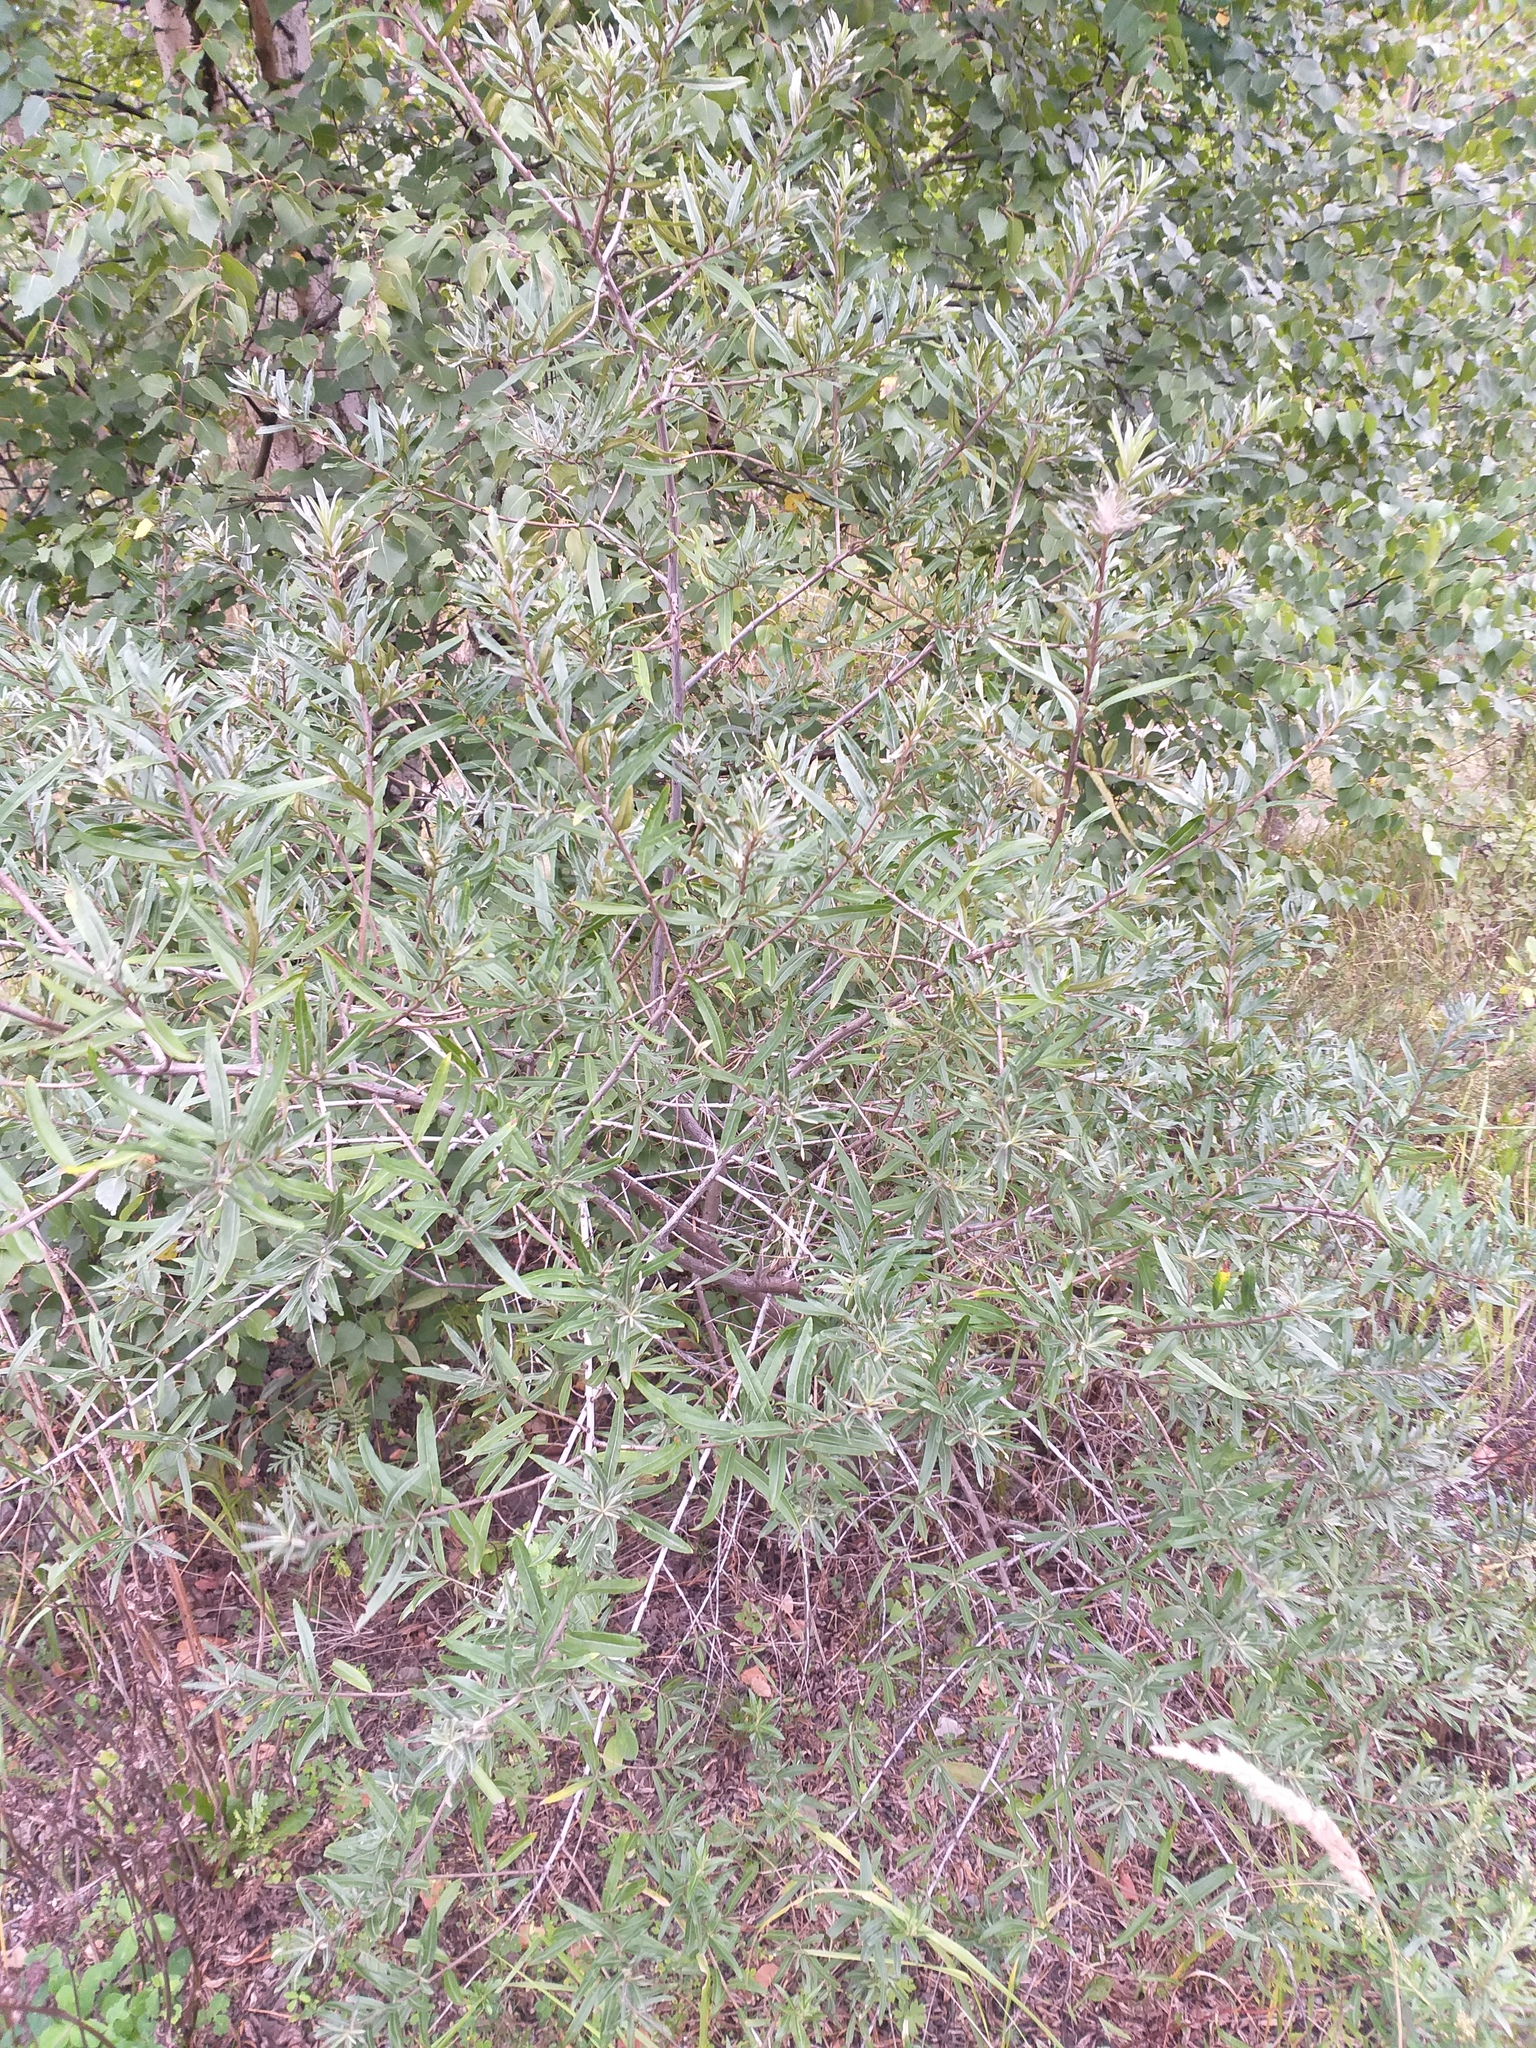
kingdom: Plantae
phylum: Tracheophyta
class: Magnoliopsida
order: Rosales
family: Elaeagnaceae
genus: Hippophae
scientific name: Hippophae rhamnoides
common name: Sea-buckthorn
